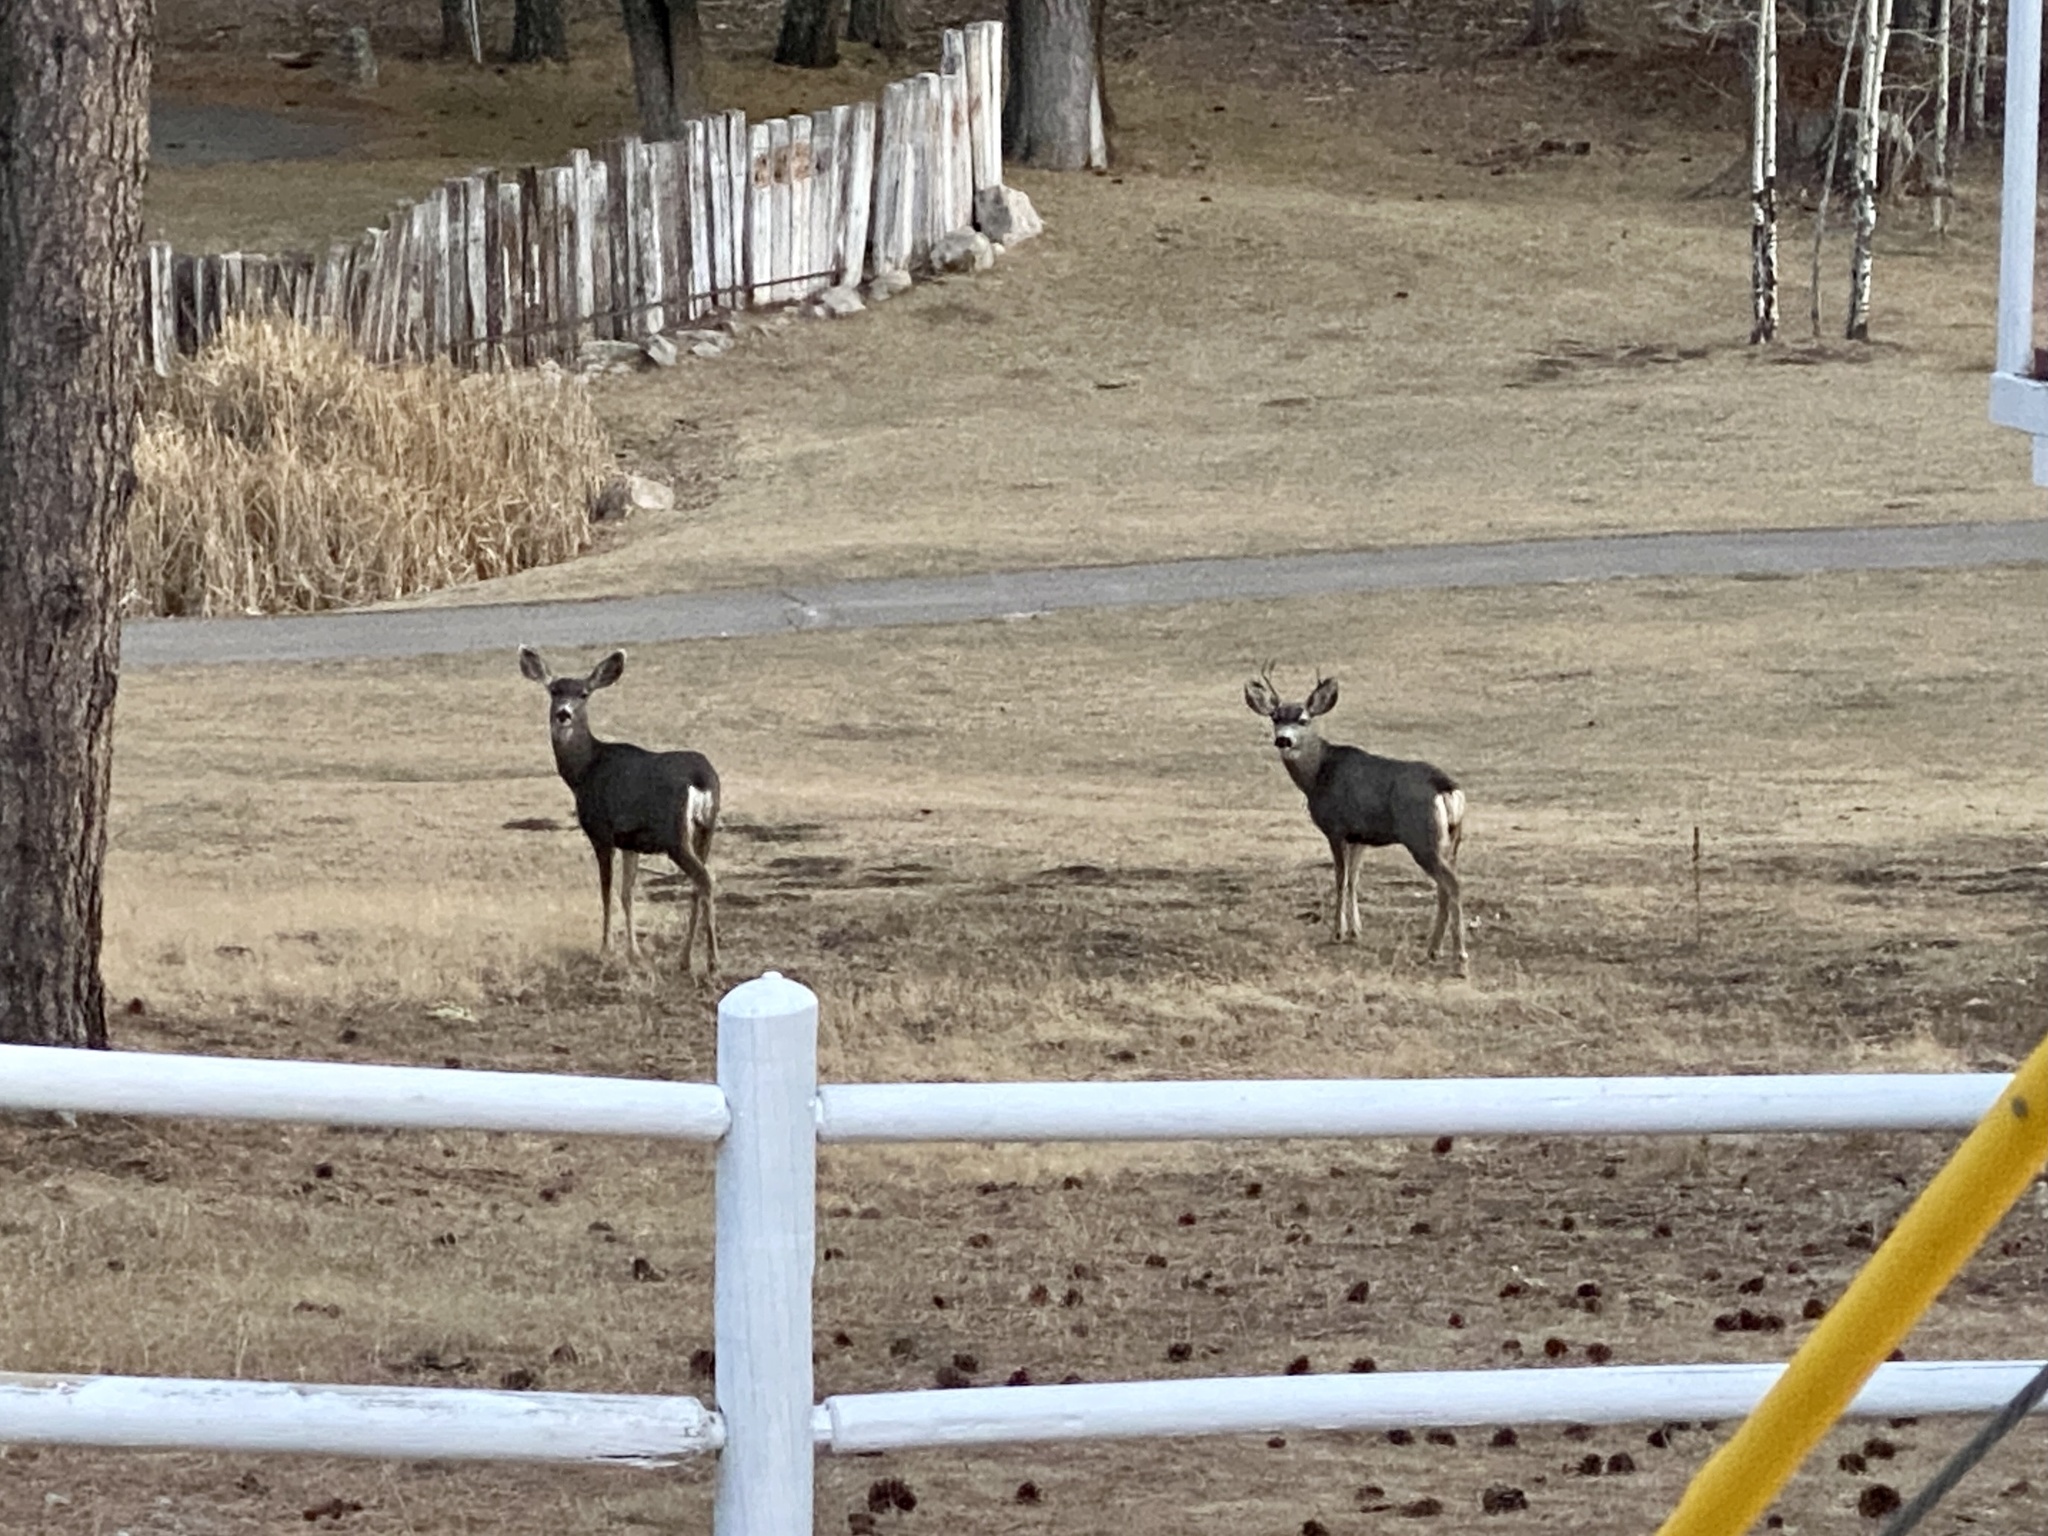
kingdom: Animalia
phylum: Chordata
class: Mammalia
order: Artiodactyla
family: Cervidae
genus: Odocoileus
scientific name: Odocoileus hemionus
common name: Mule deer
